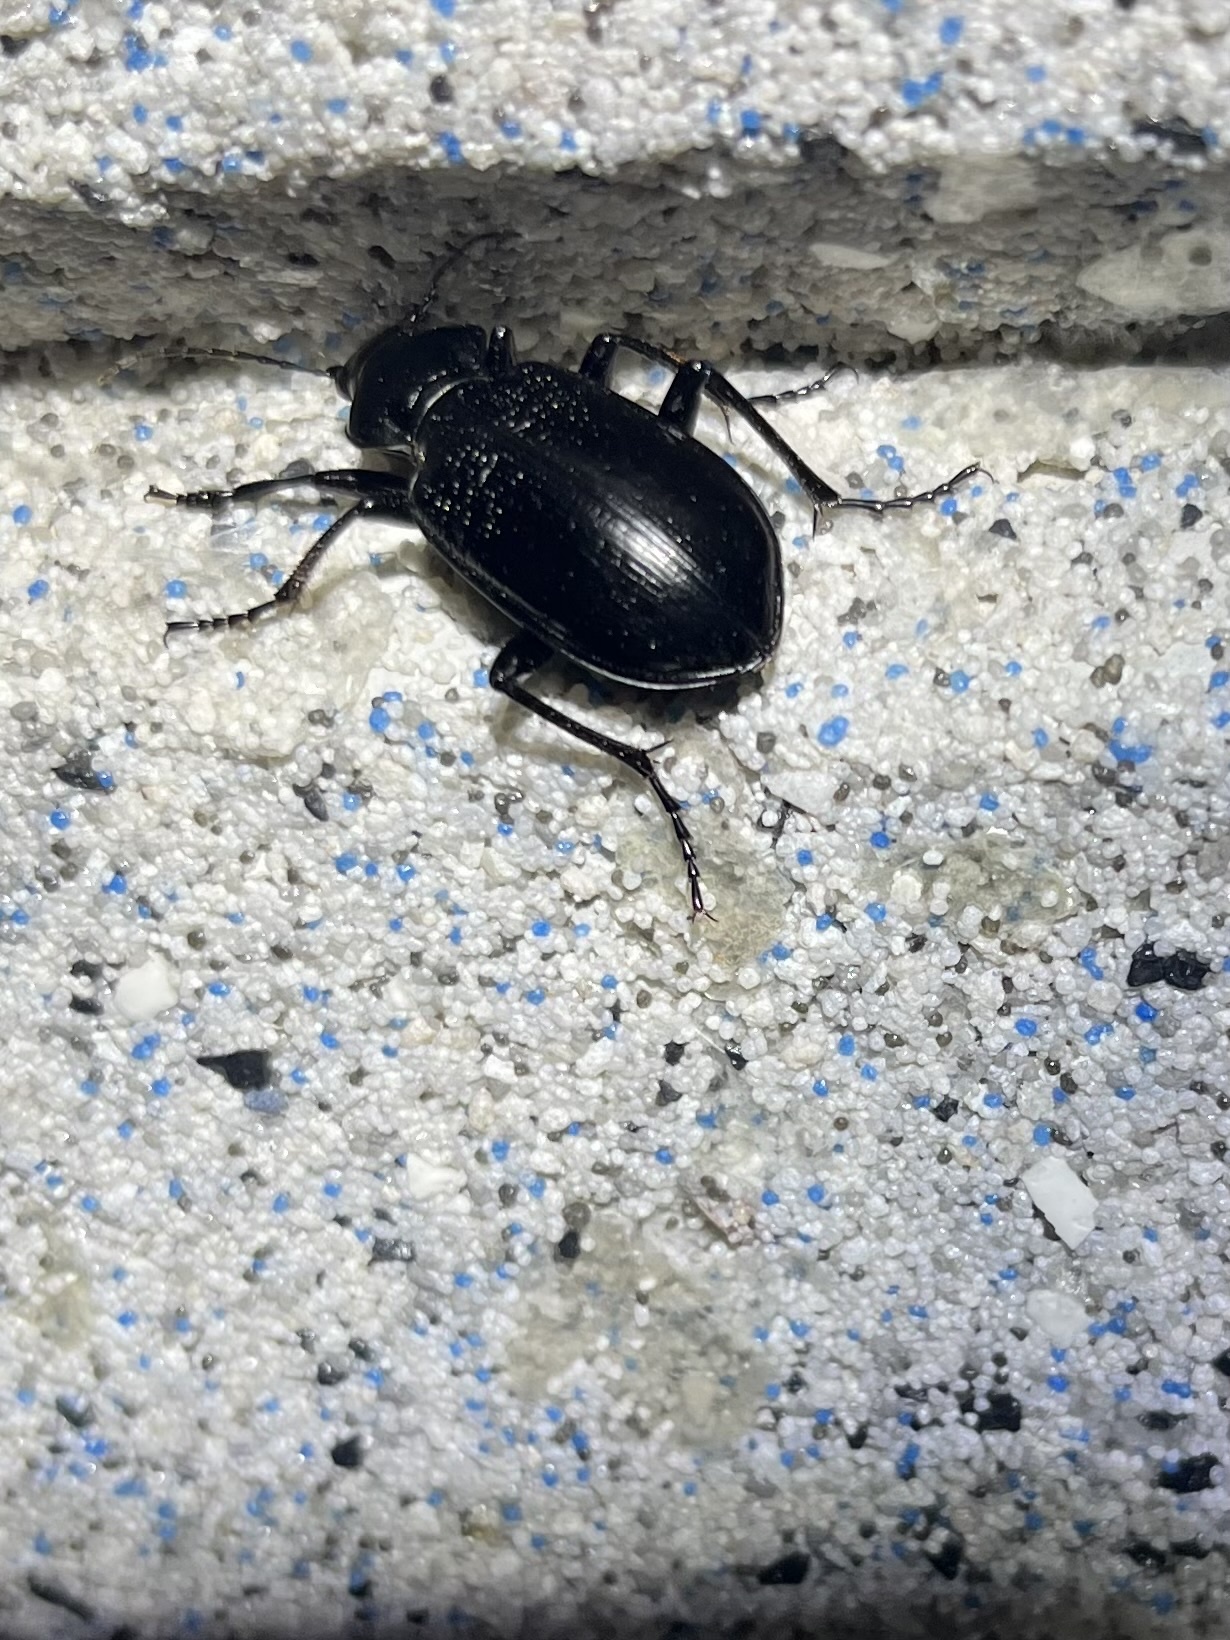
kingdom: Animalia
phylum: Arthropoda
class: Insecta
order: Coleoptera
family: Carabidae
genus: Calosoma
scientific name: Calosoma marginale
